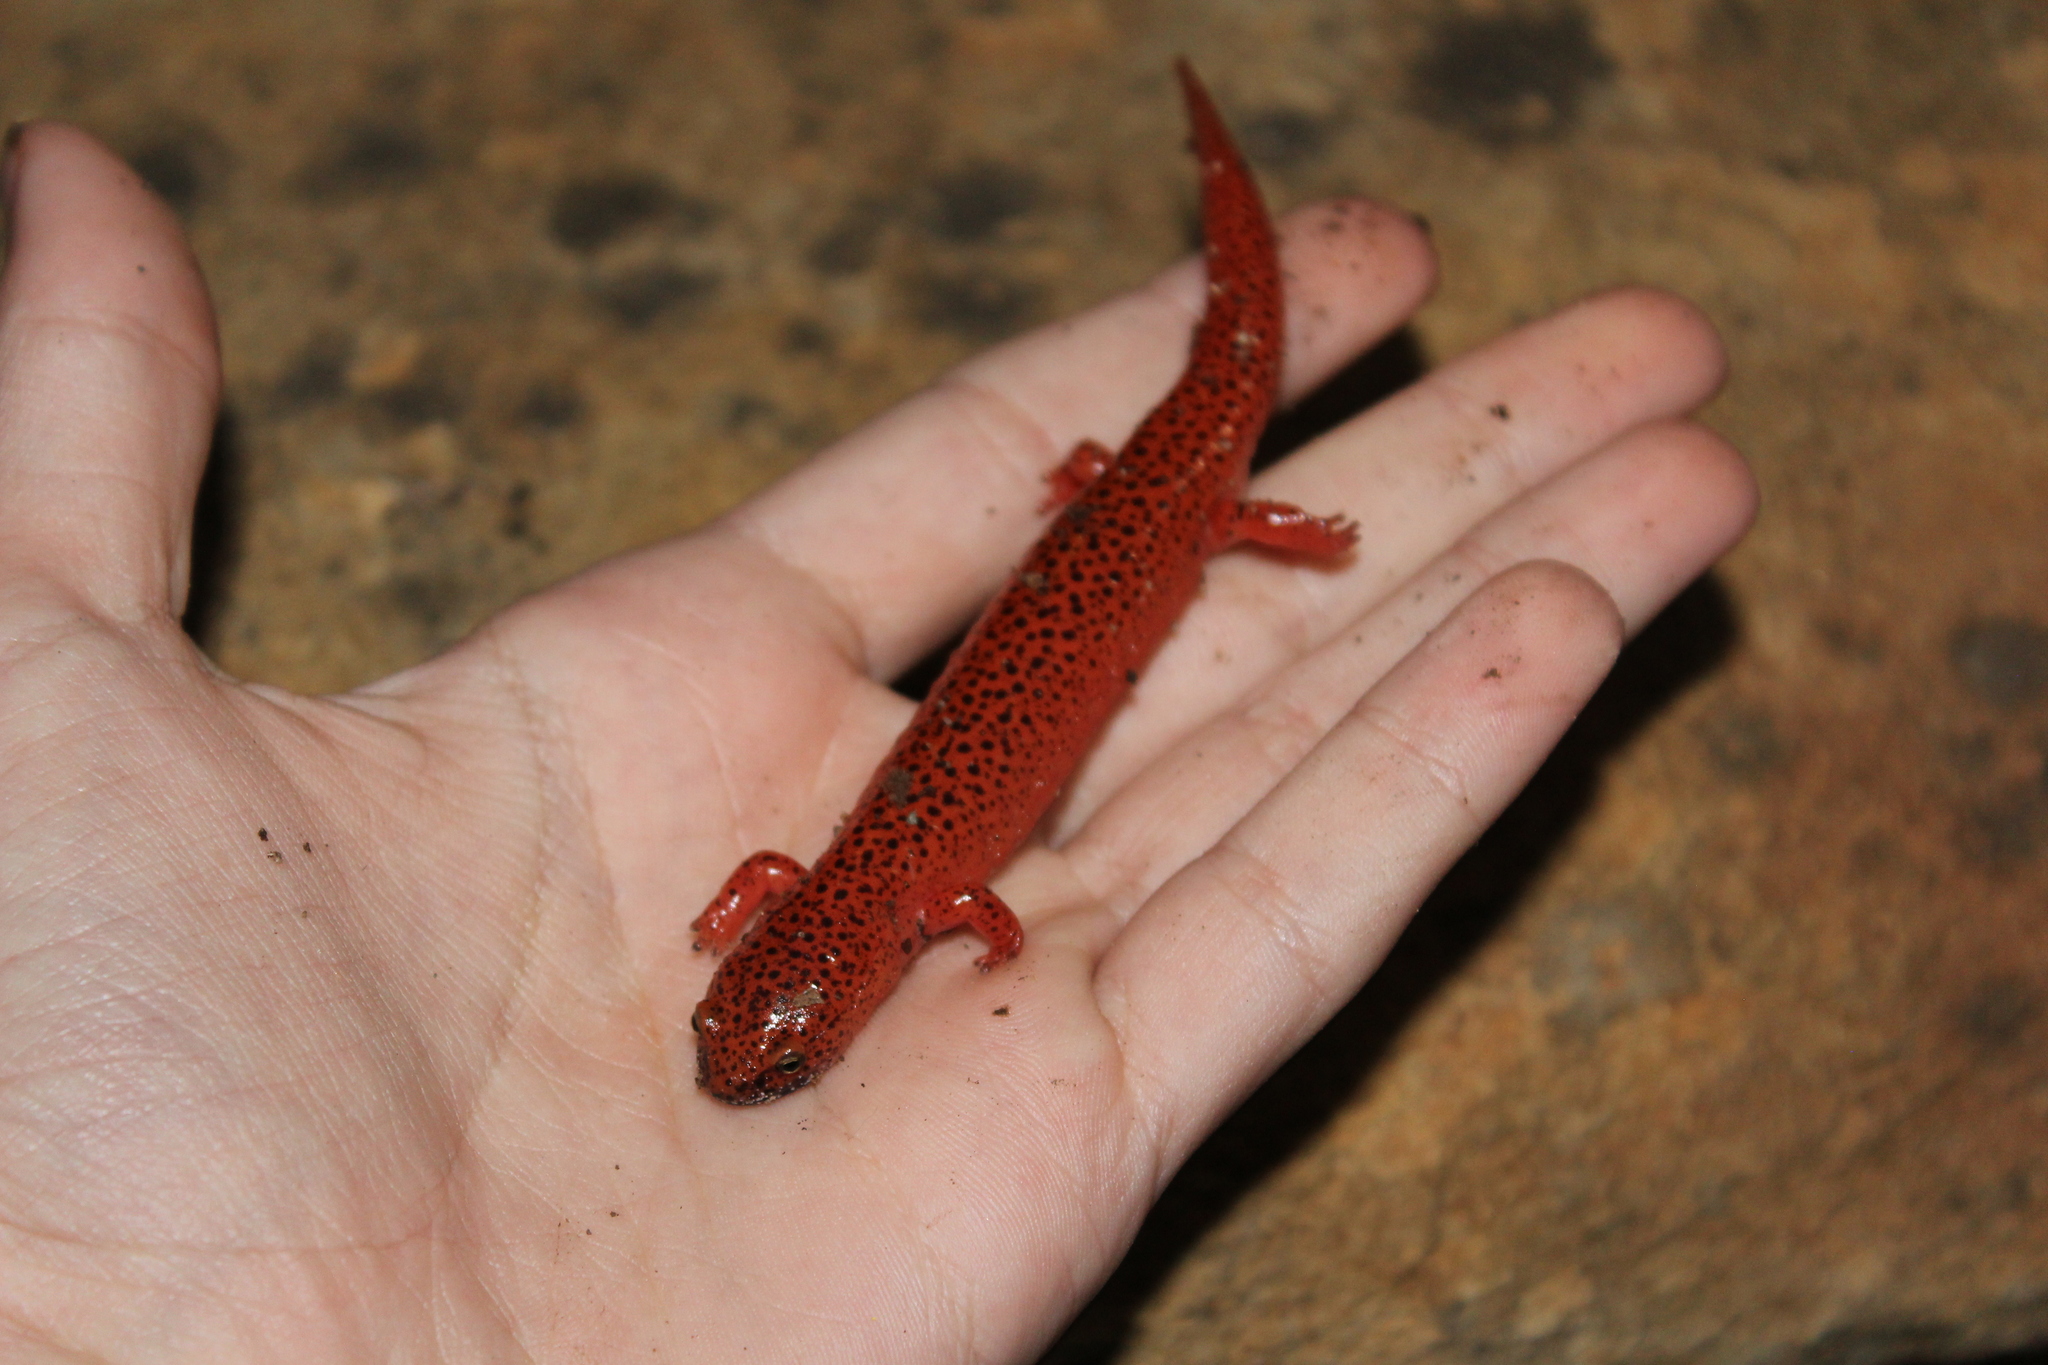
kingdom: Animalia
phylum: Chordata
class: Amphibia
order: Caudata
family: Plethodontidae
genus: Pseudotriton
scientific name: Pseudotriton ruber
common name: Red salamander
